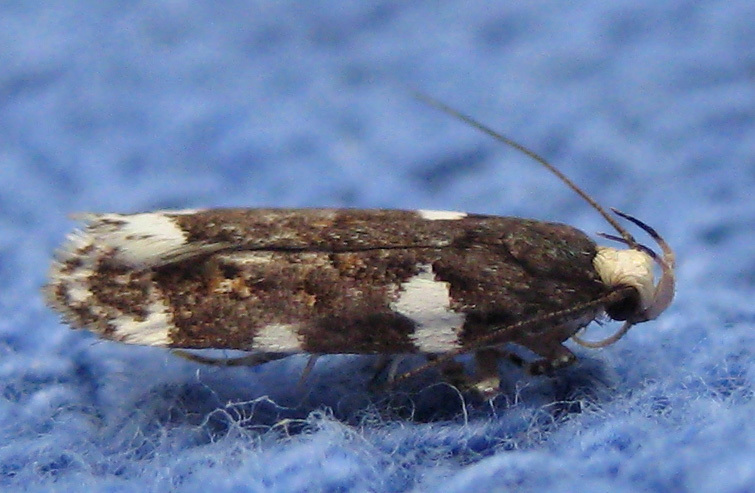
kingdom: Animalia
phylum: Arthropoda
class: Insecta
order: Lepidoptera
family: Gelechiidae
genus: Fascista
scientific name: Fascista cercerisella
